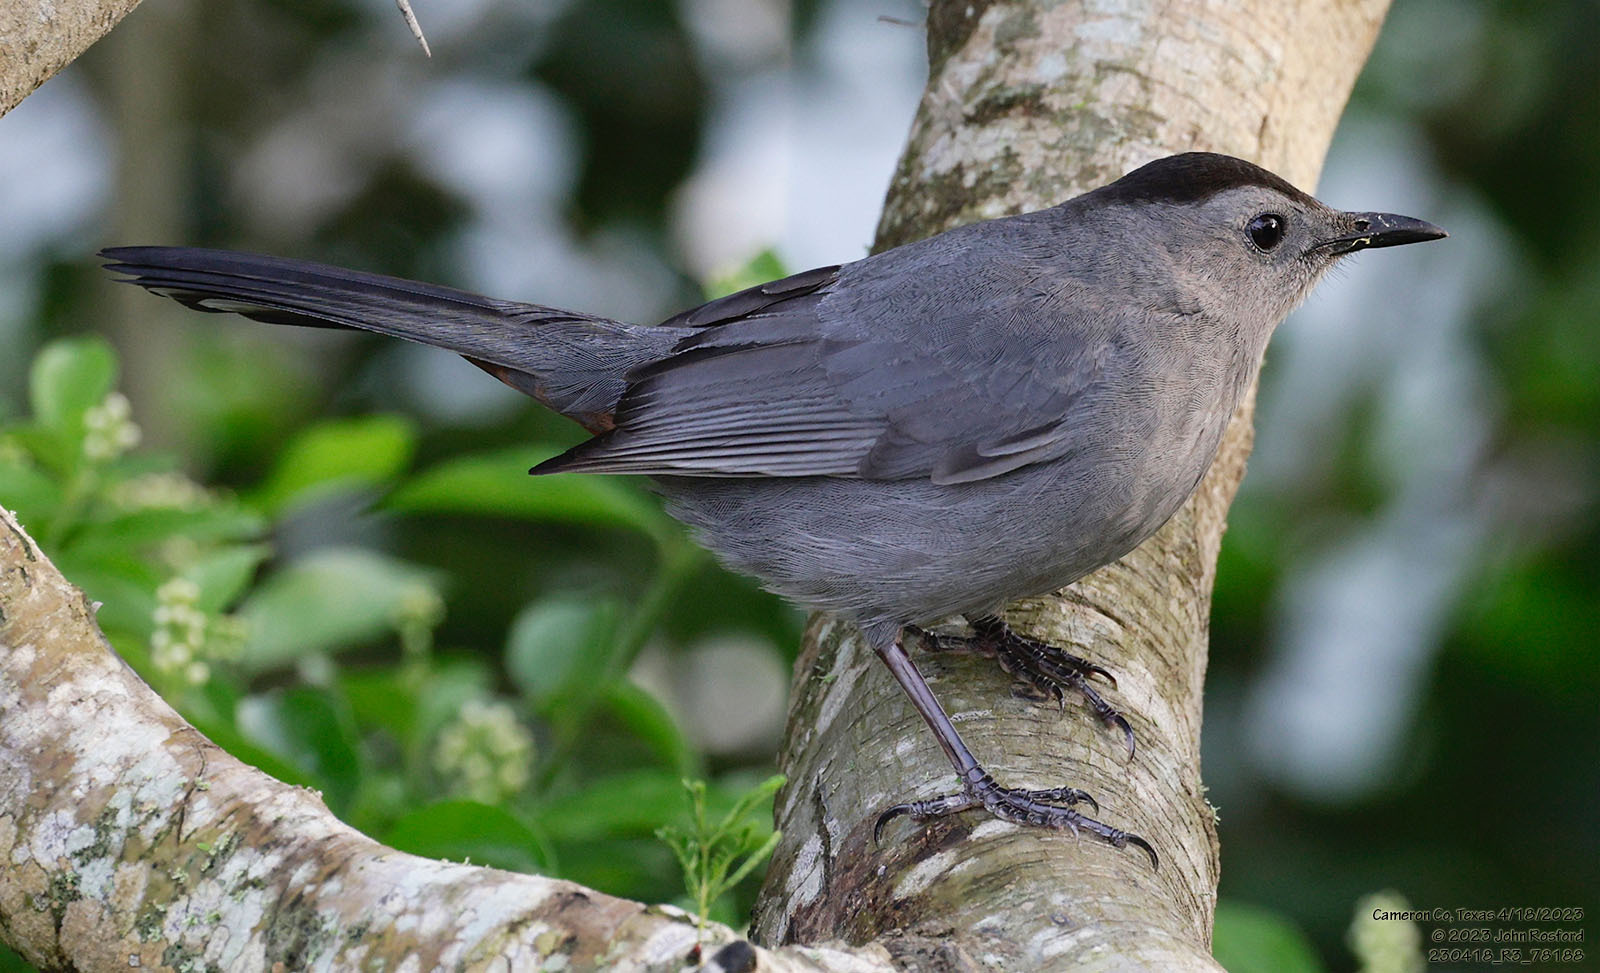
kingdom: Animalia
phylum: Chordata
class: Aves
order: Passeriformes
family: Mimidae
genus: Dumetella
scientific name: Dumetella carolinensis
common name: Gray catbird
